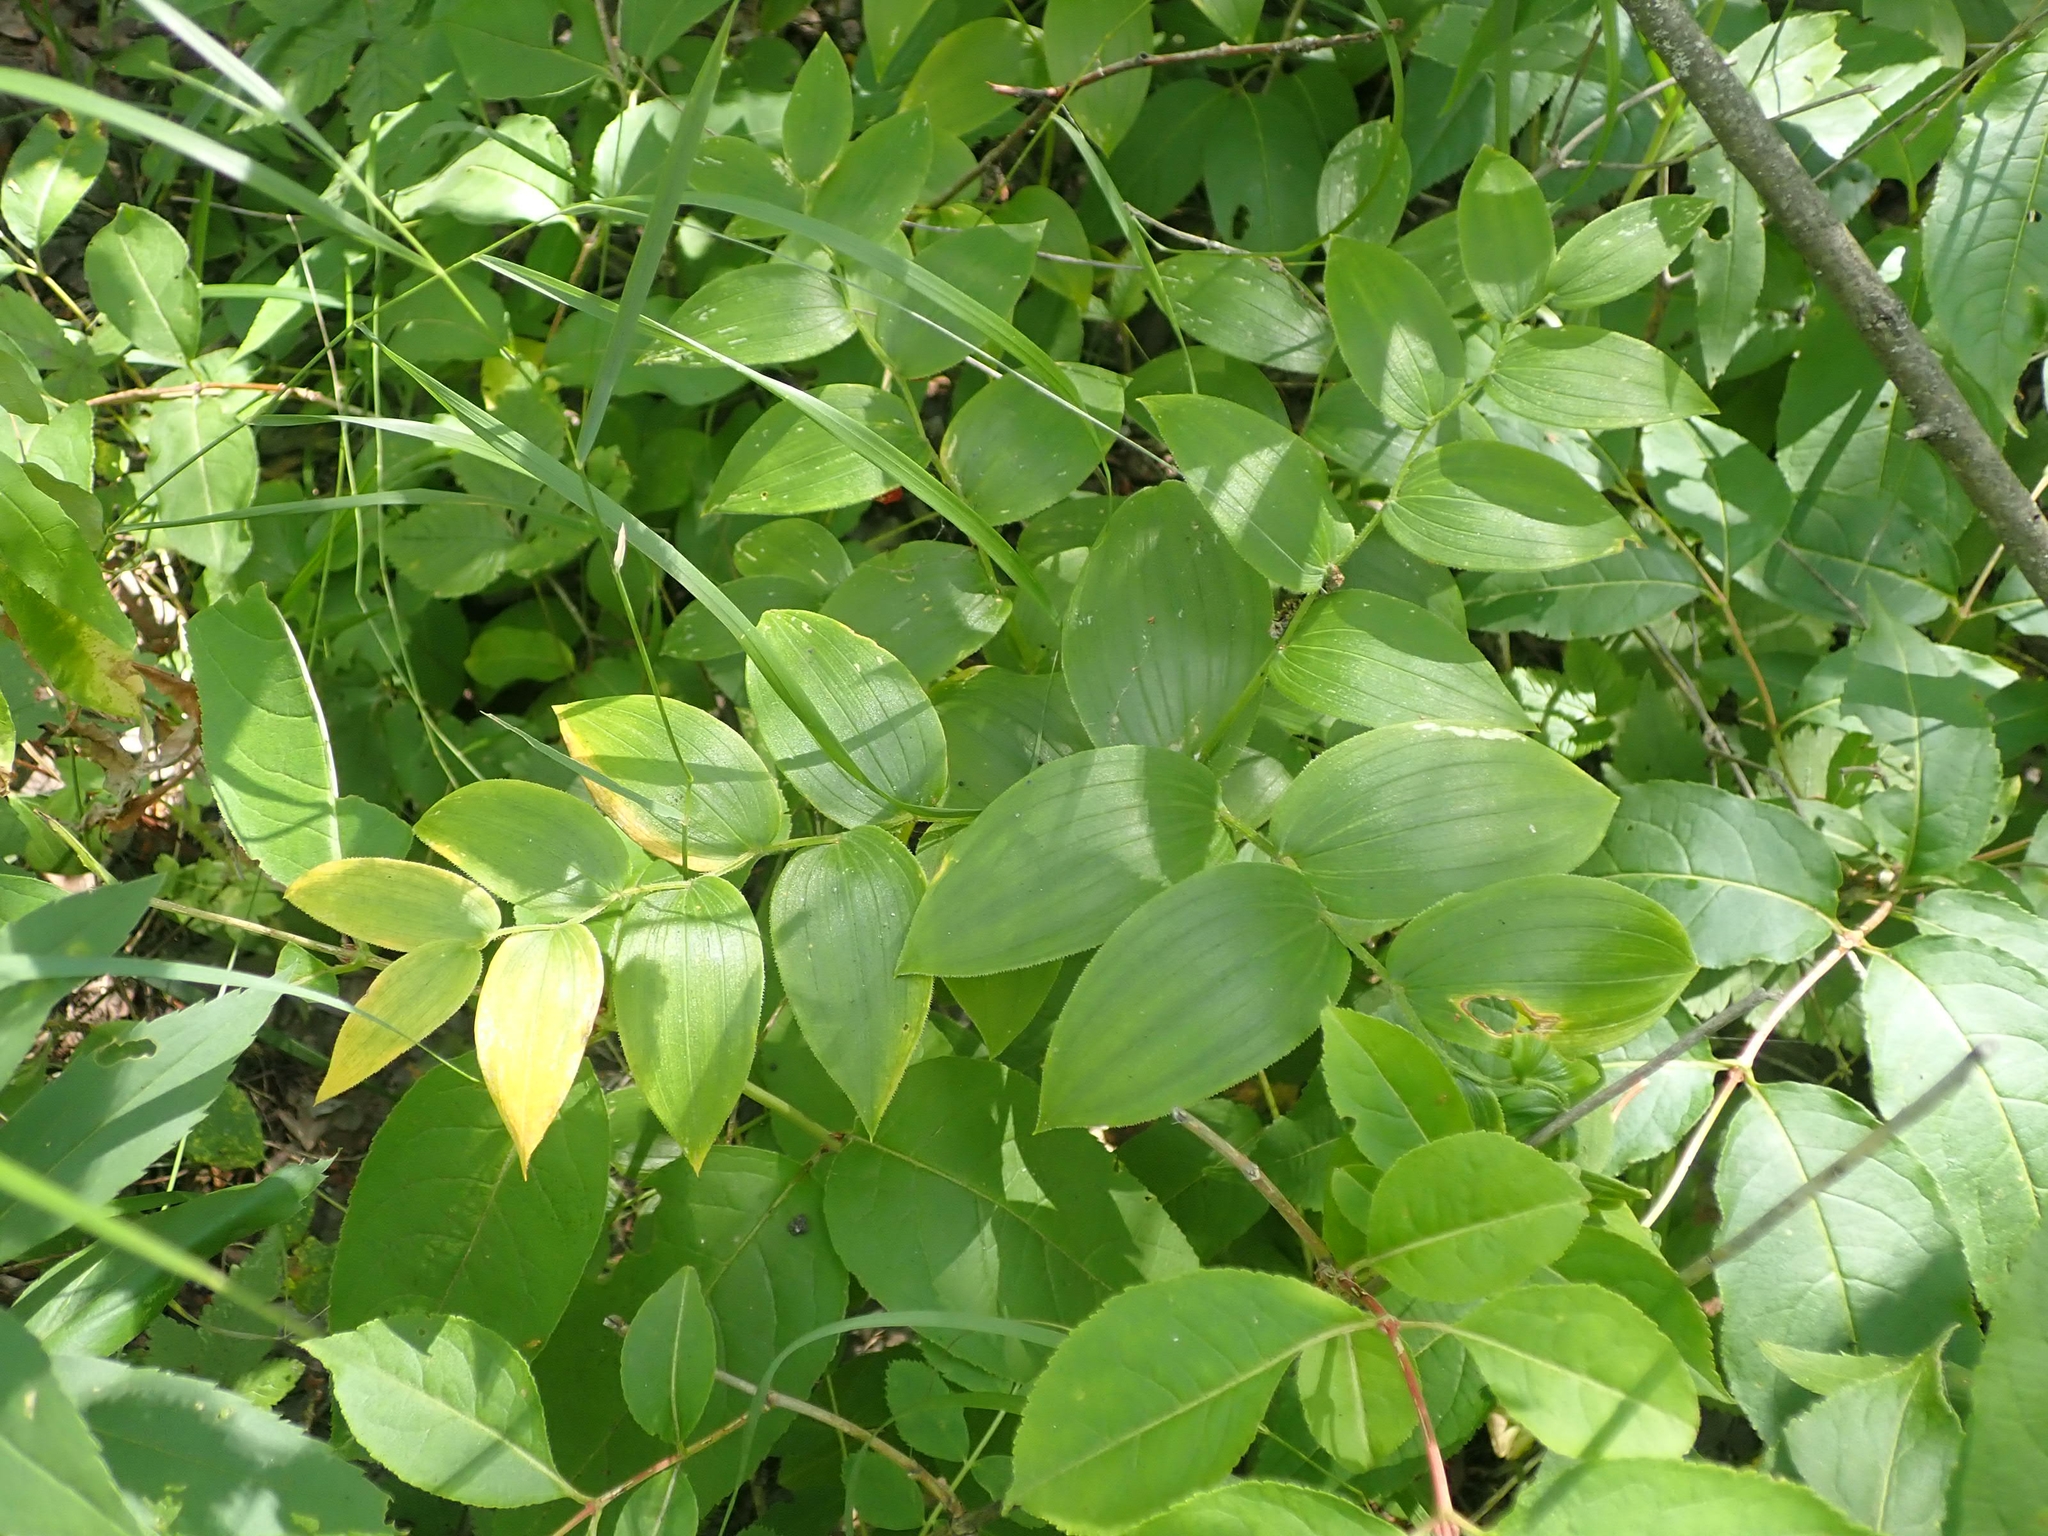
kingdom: Plantae
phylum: Tracheophyta
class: Liliopsida
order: Liliales
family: Liliaceae
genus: Streptopus
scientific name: Streptopus lanceolatus
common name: Rose mandarin
